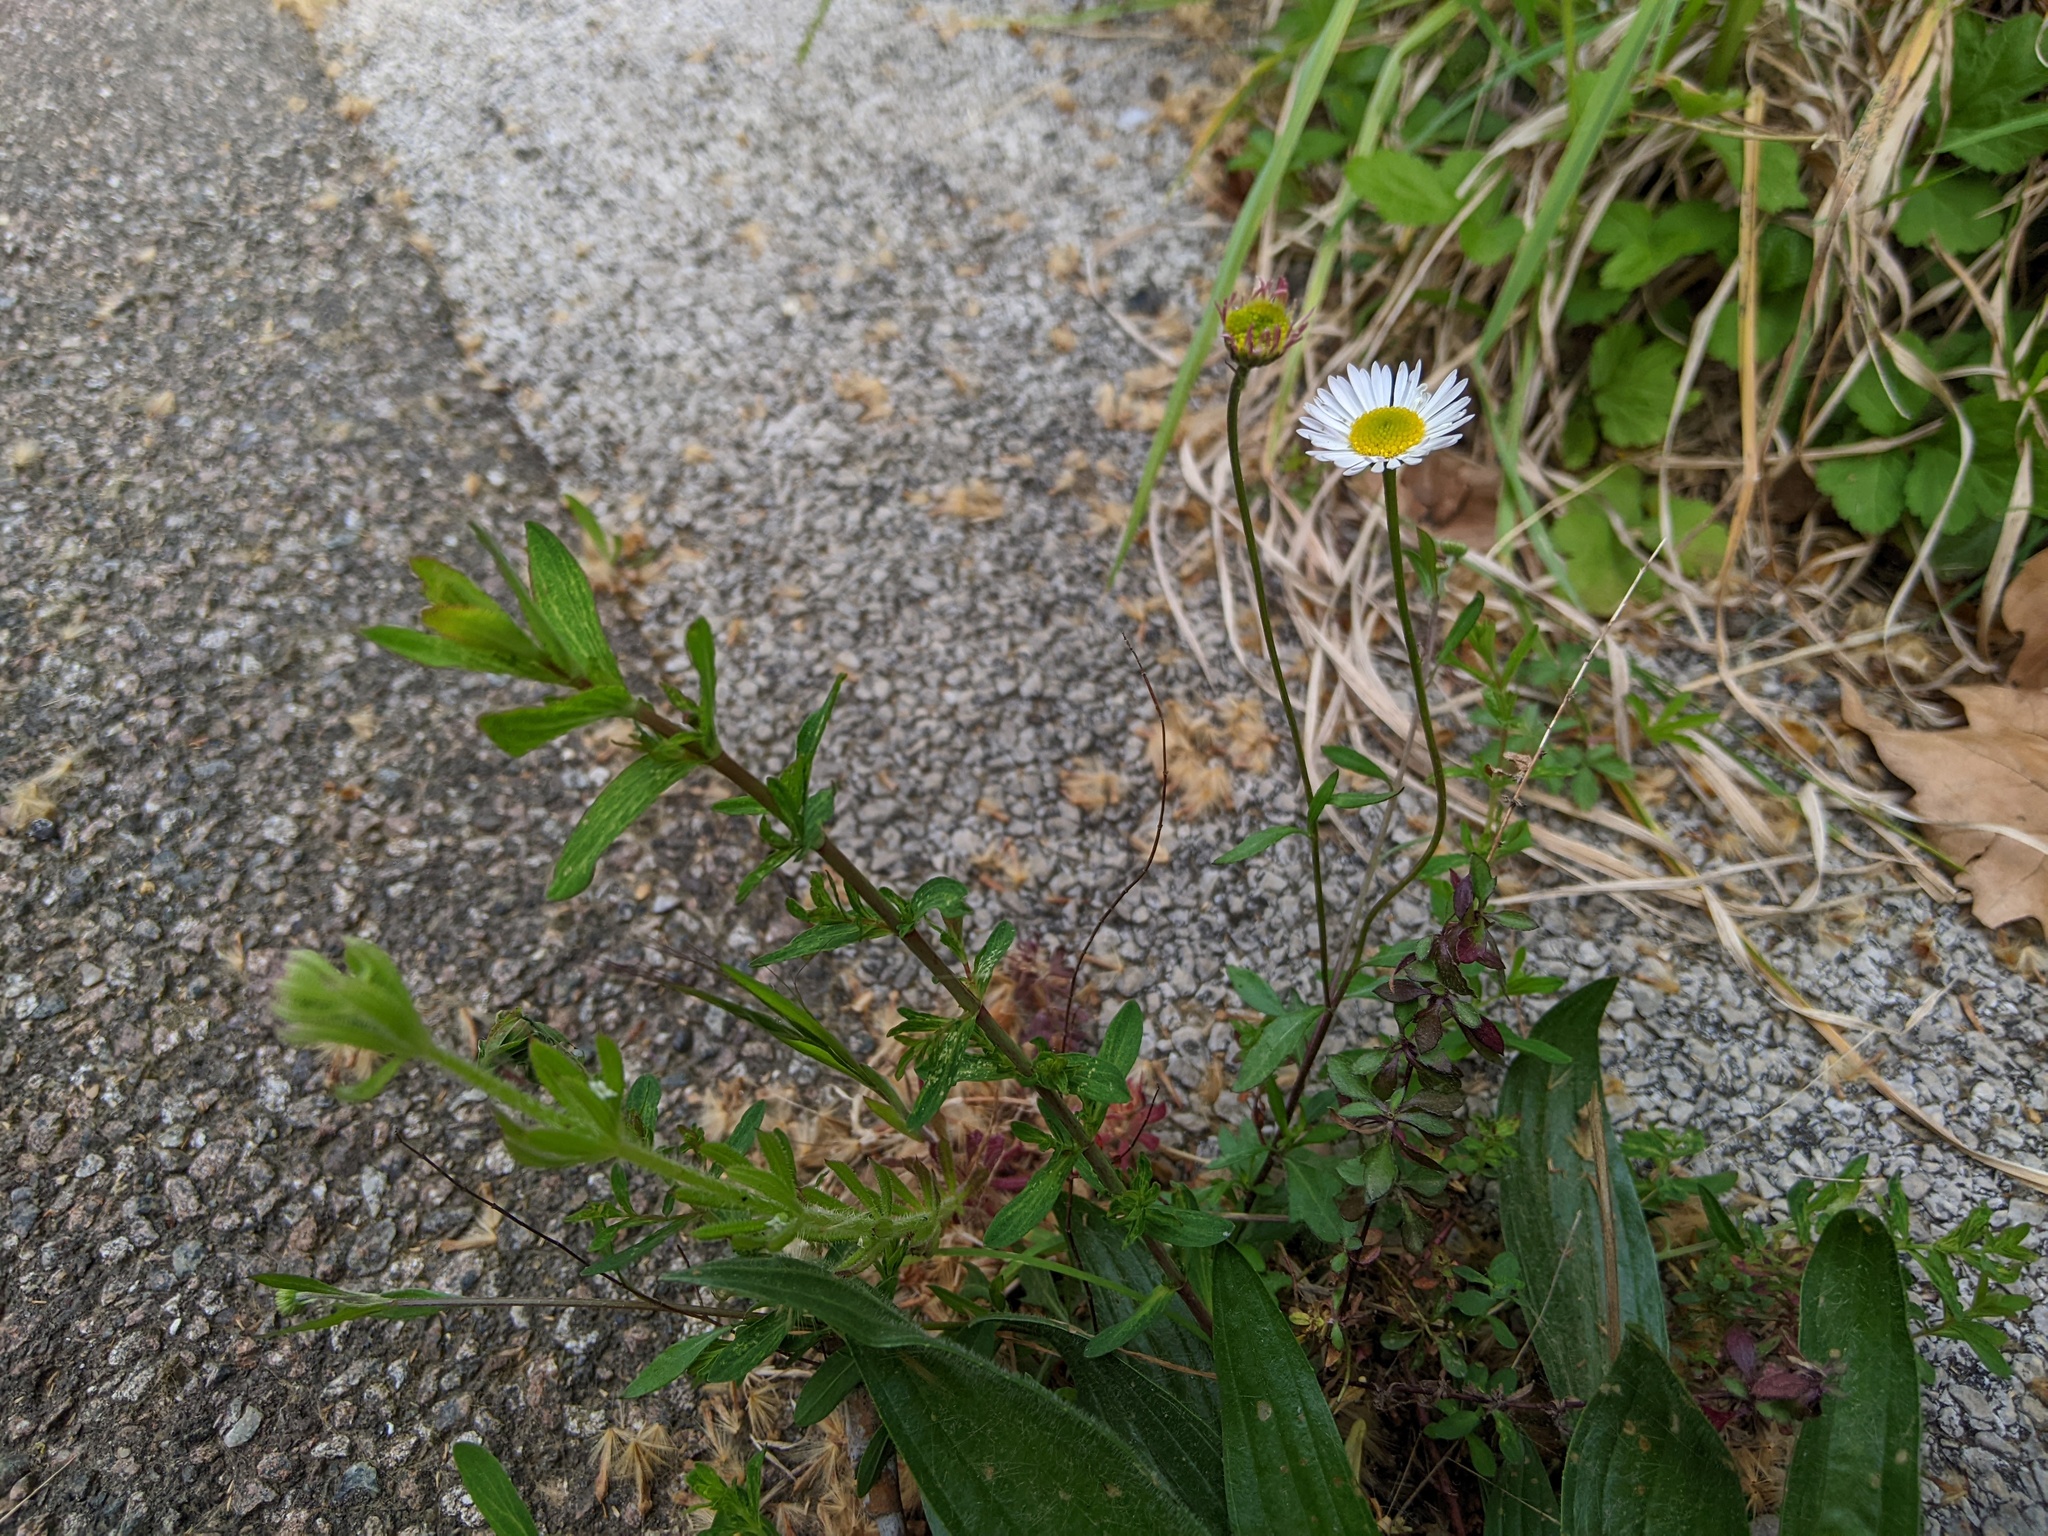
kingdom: Plantae
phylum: Tracheophyta
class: Magnoliopsida
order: Asterales
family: Asteraceae
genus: Erigeron
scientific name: Erigeron karvinskianus
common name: Mexican fleabane
